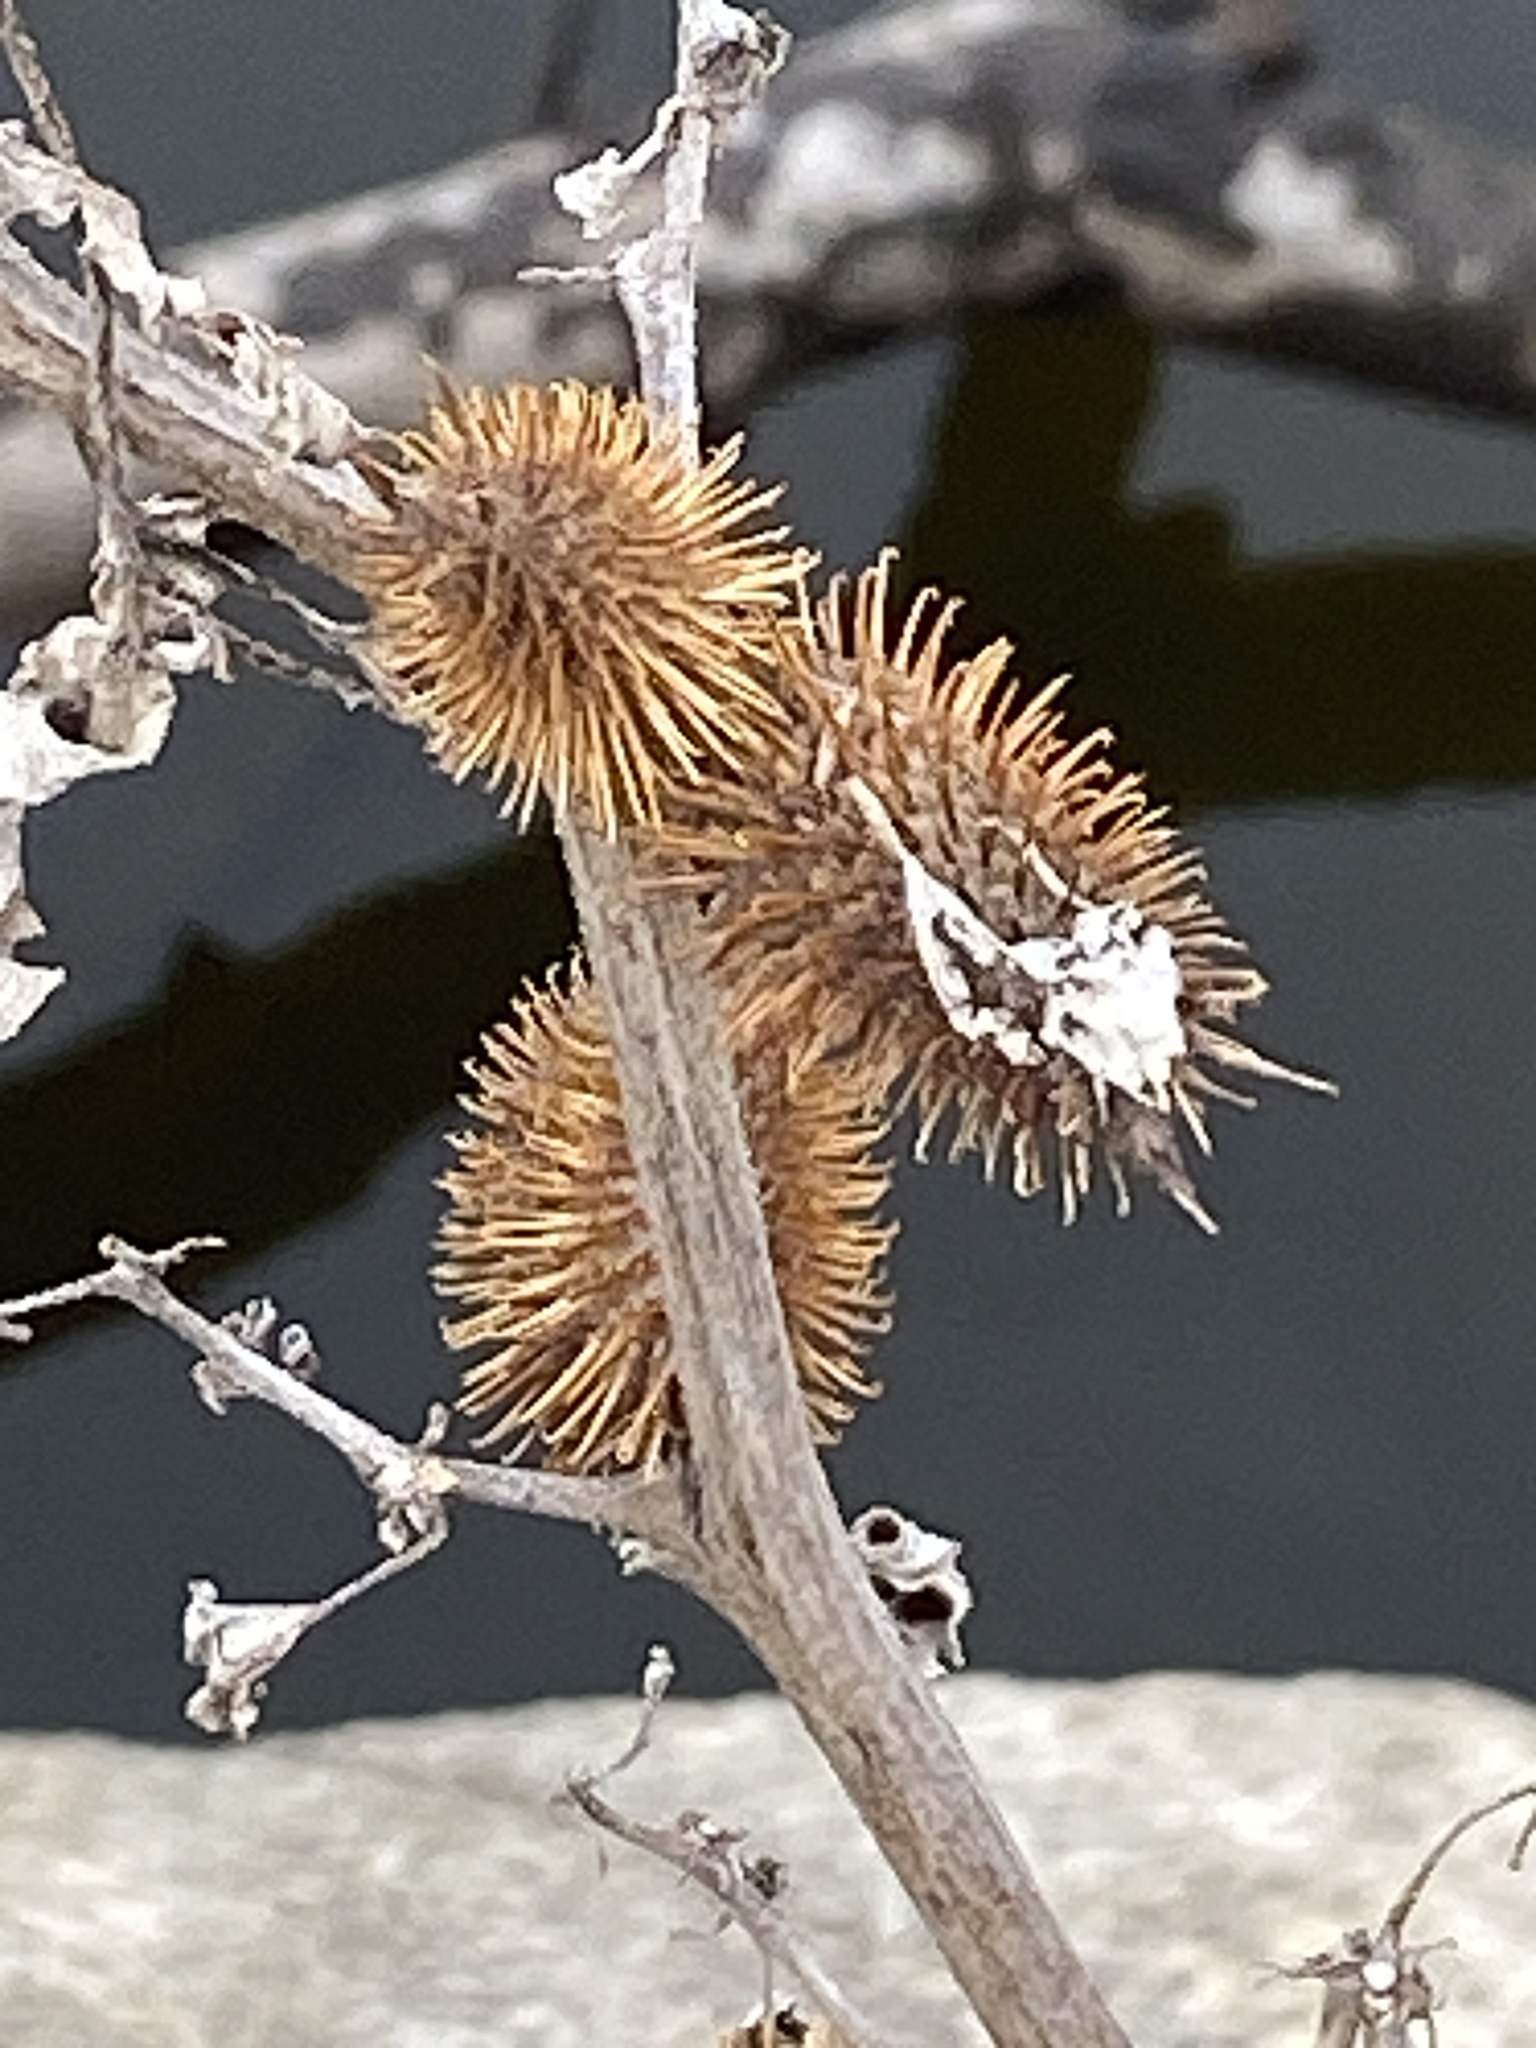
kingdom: Plantae
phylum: Tracheophyta
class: Magnoliopsida
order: Asterales
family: Asteraceae
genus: Xanthium
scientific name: Xanthium strumarium
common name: Rough cocklebur
